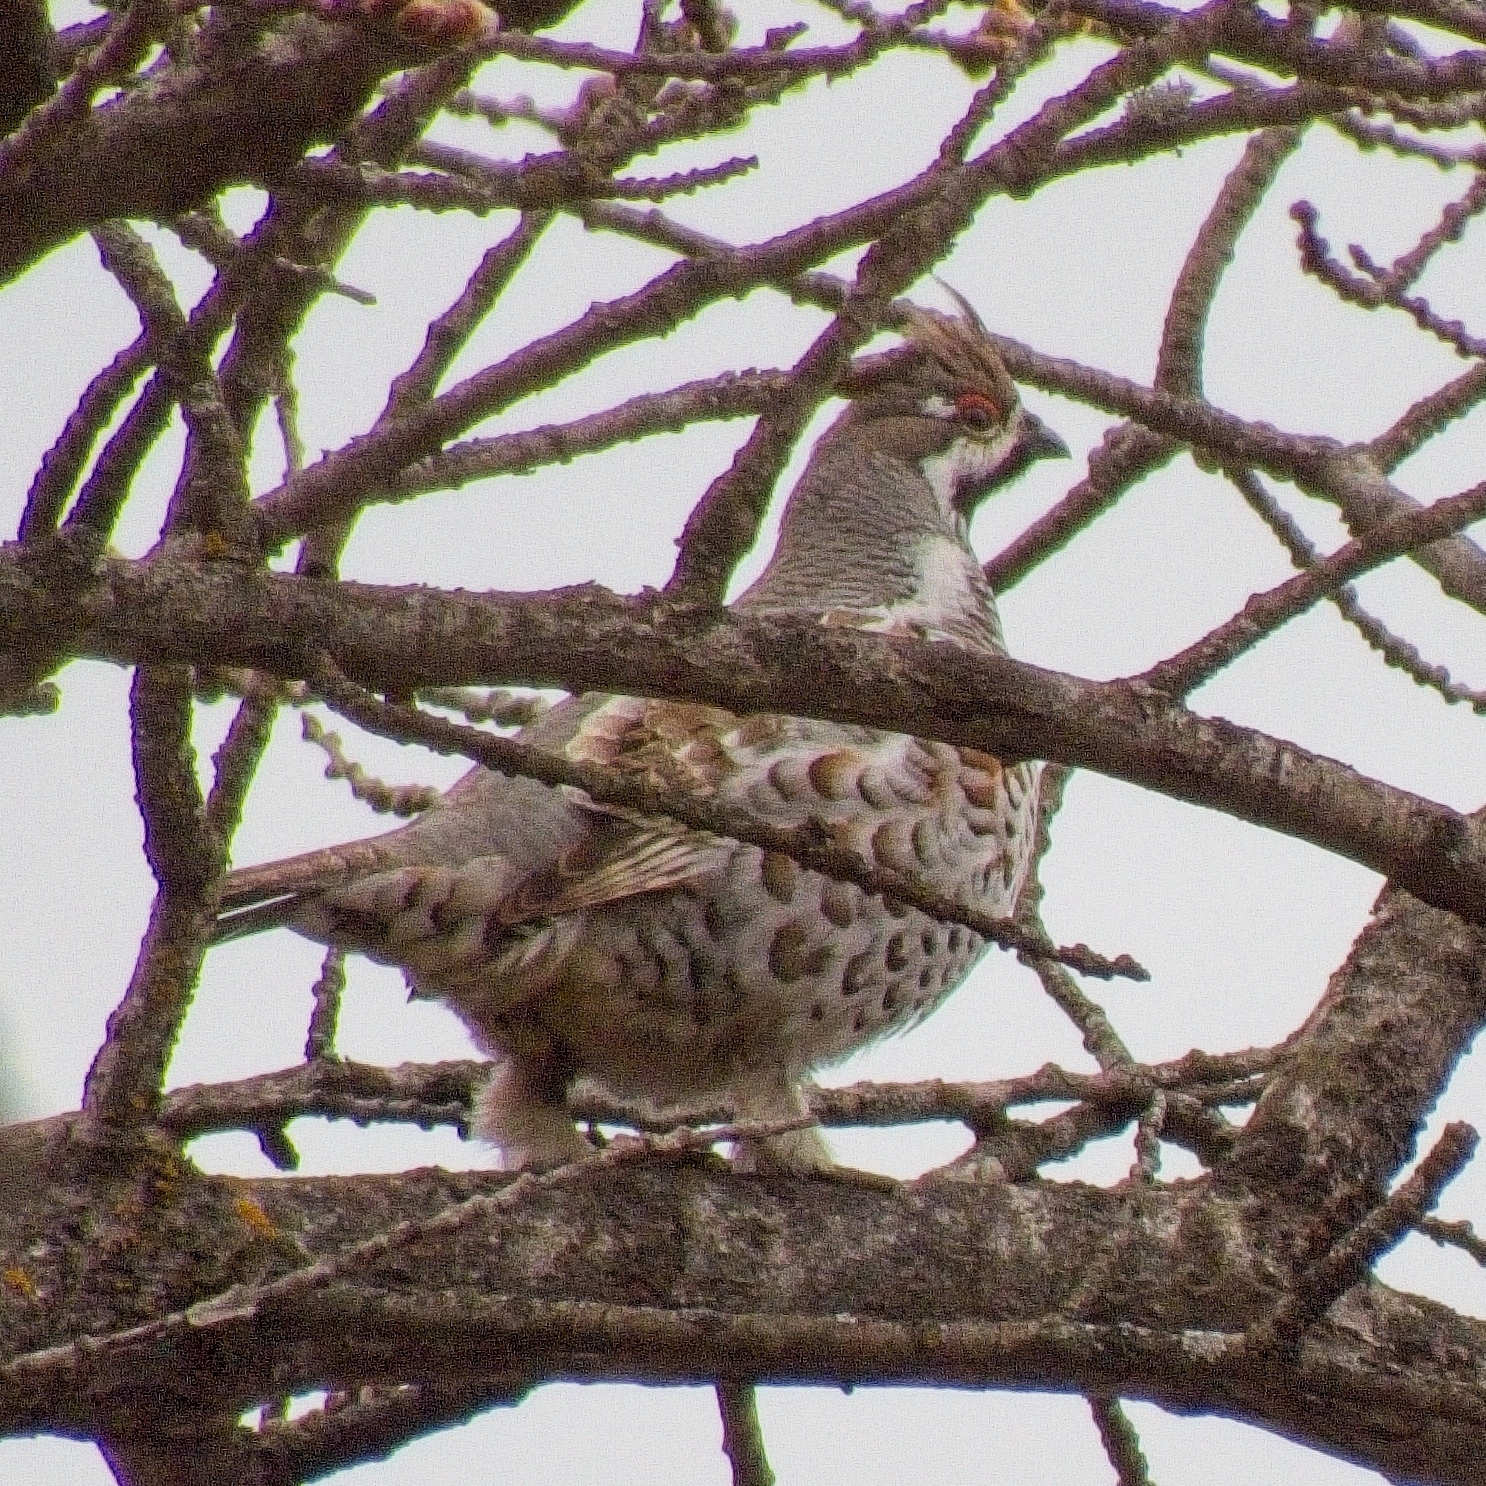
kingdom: Animalia
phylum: Chordata
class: Aves
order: Galliformes
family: Phasianidae
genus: Tetrastes
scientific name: Tetrastes bonasia
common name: Hazel grouse
